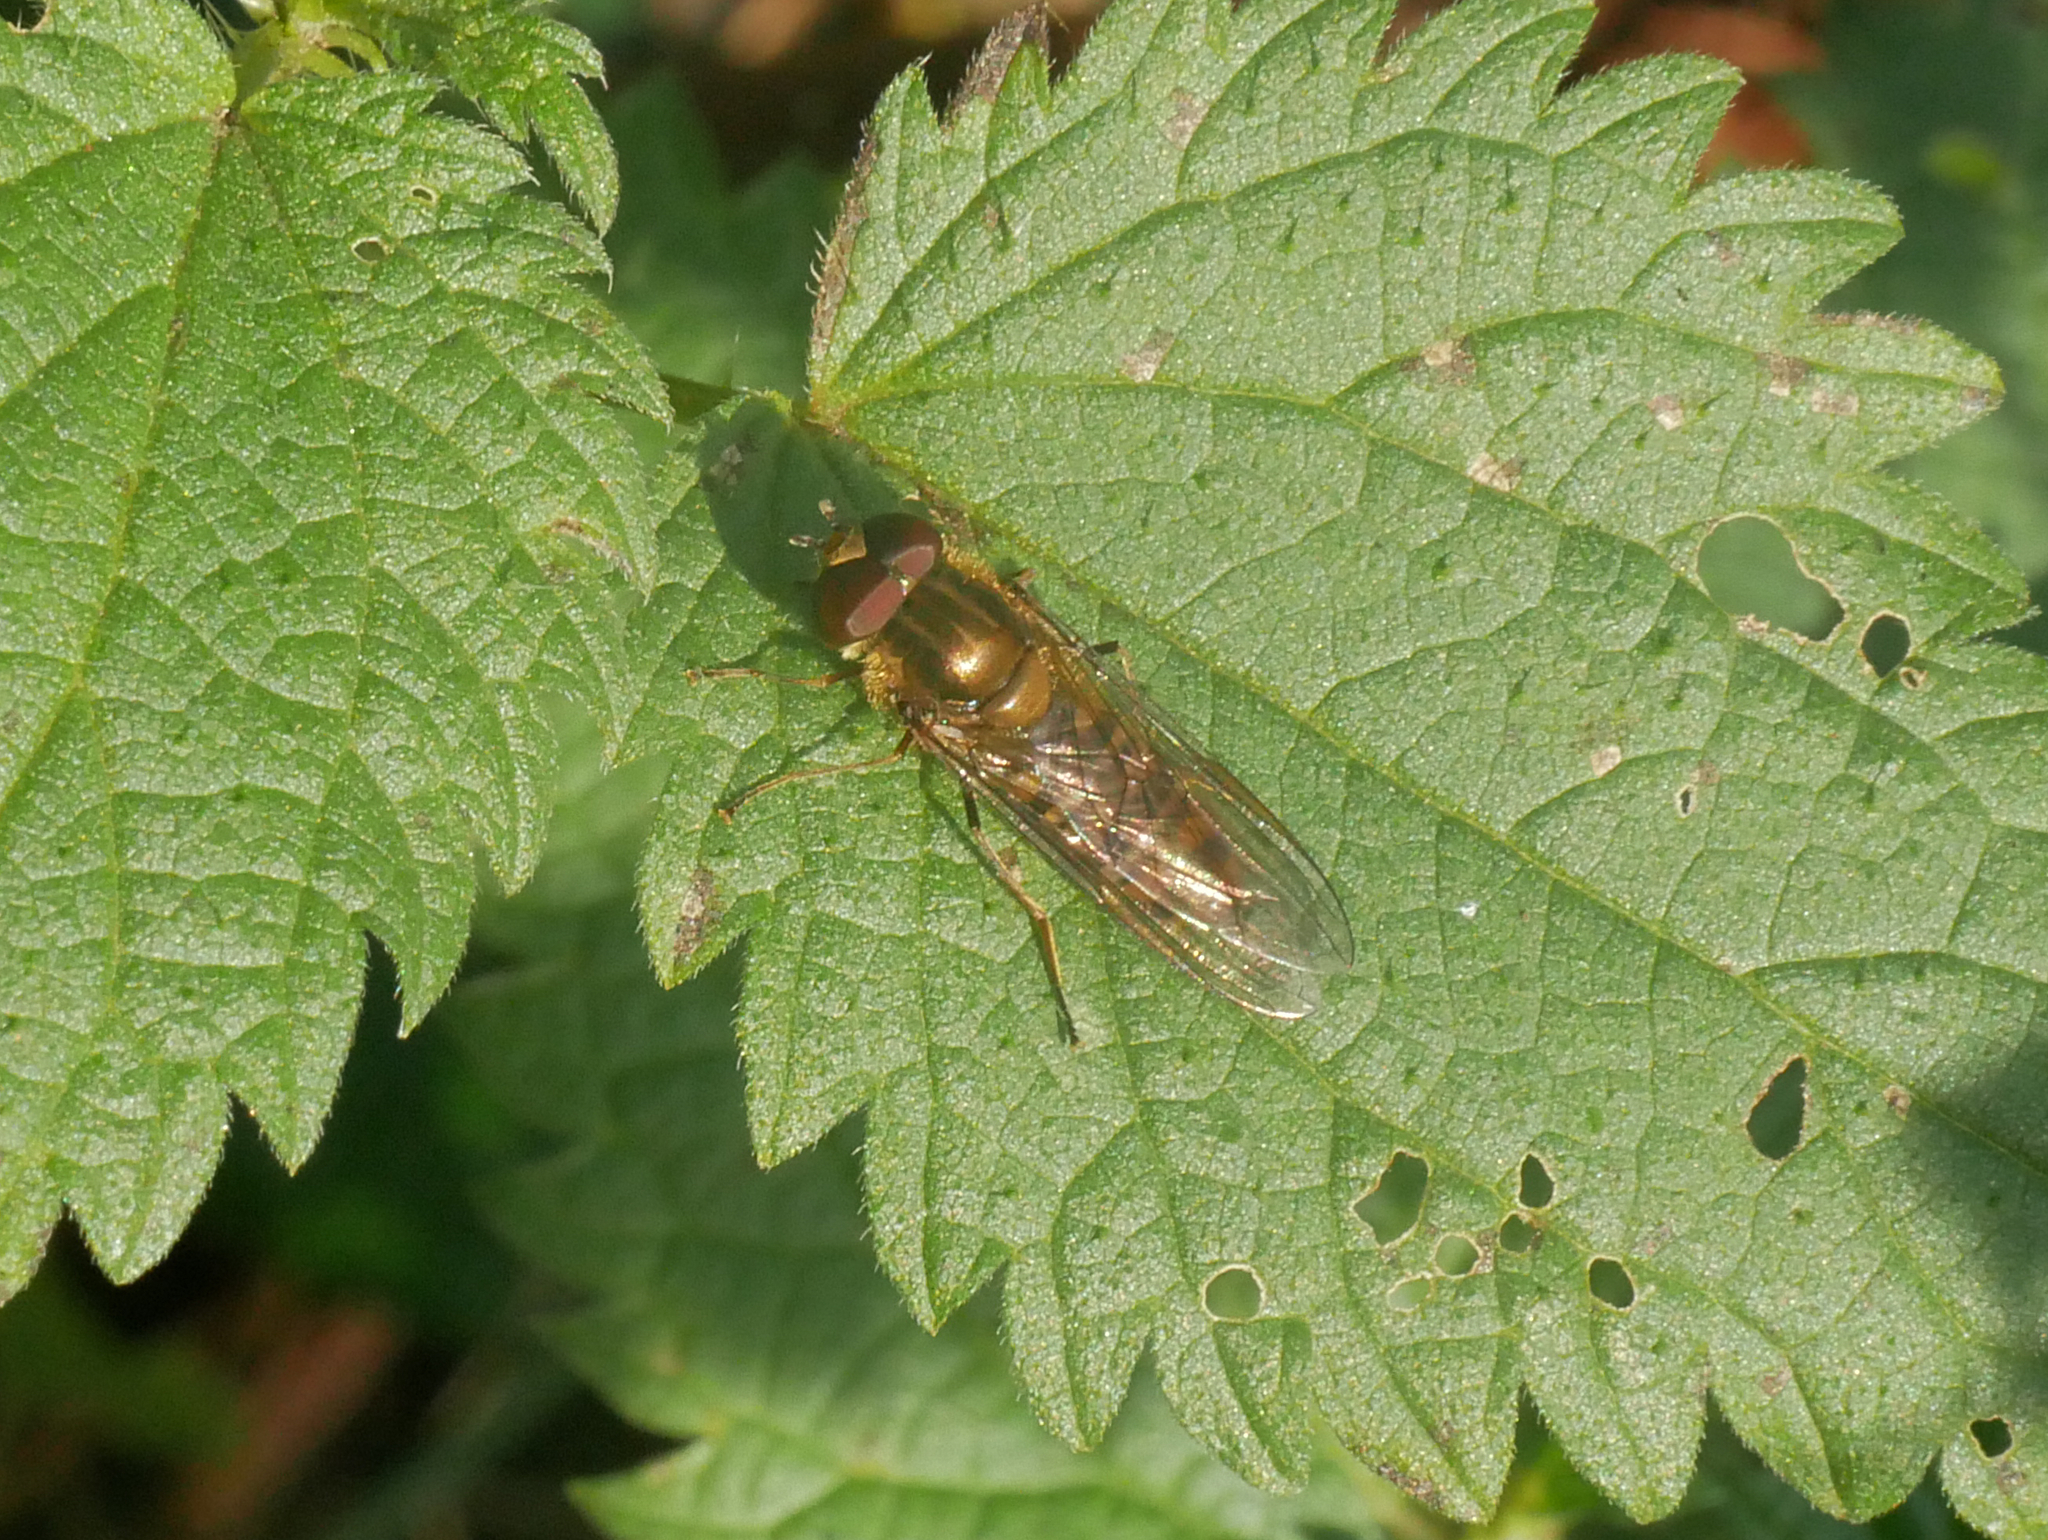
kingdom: Animalia
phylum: Arthropoda
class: Insecta
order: Diptera
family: Syrphidae
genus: Episyrphus
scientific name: Episyrphus balteatus
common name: Marmalade hoverfly
